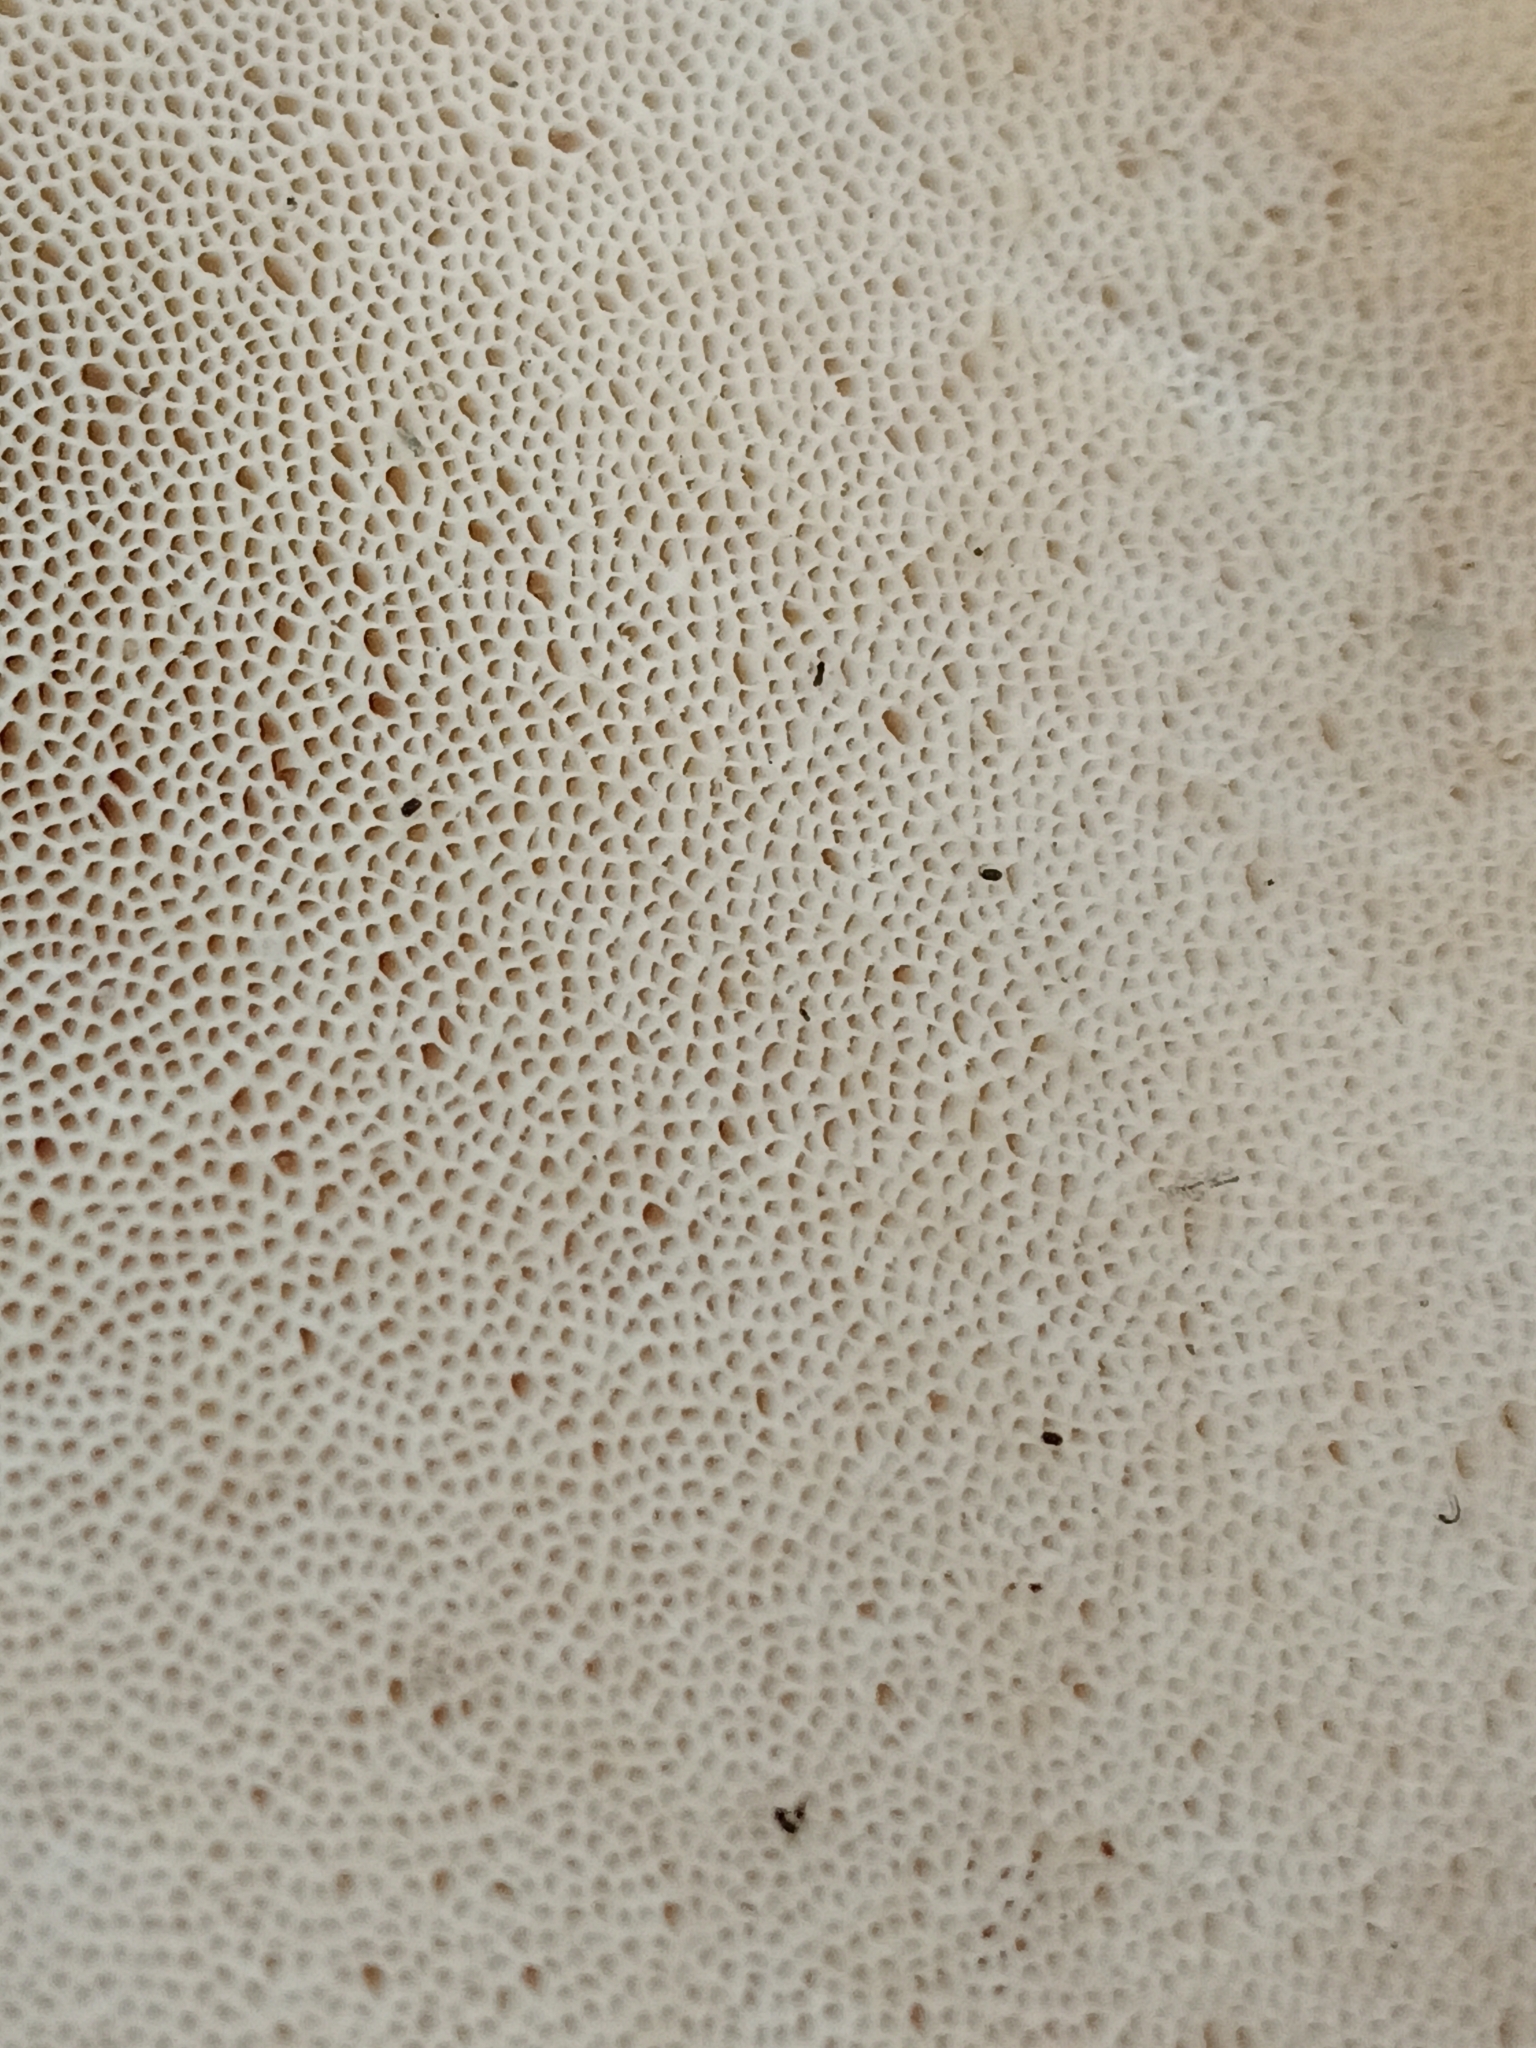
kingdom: Fungi
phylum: Basidiomycota
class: Agaricomycetes
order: Polyporales
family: Fomitopsidaceae
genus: Fomitopsis
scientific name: Fomitopsis betulina
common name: Birch polypore
